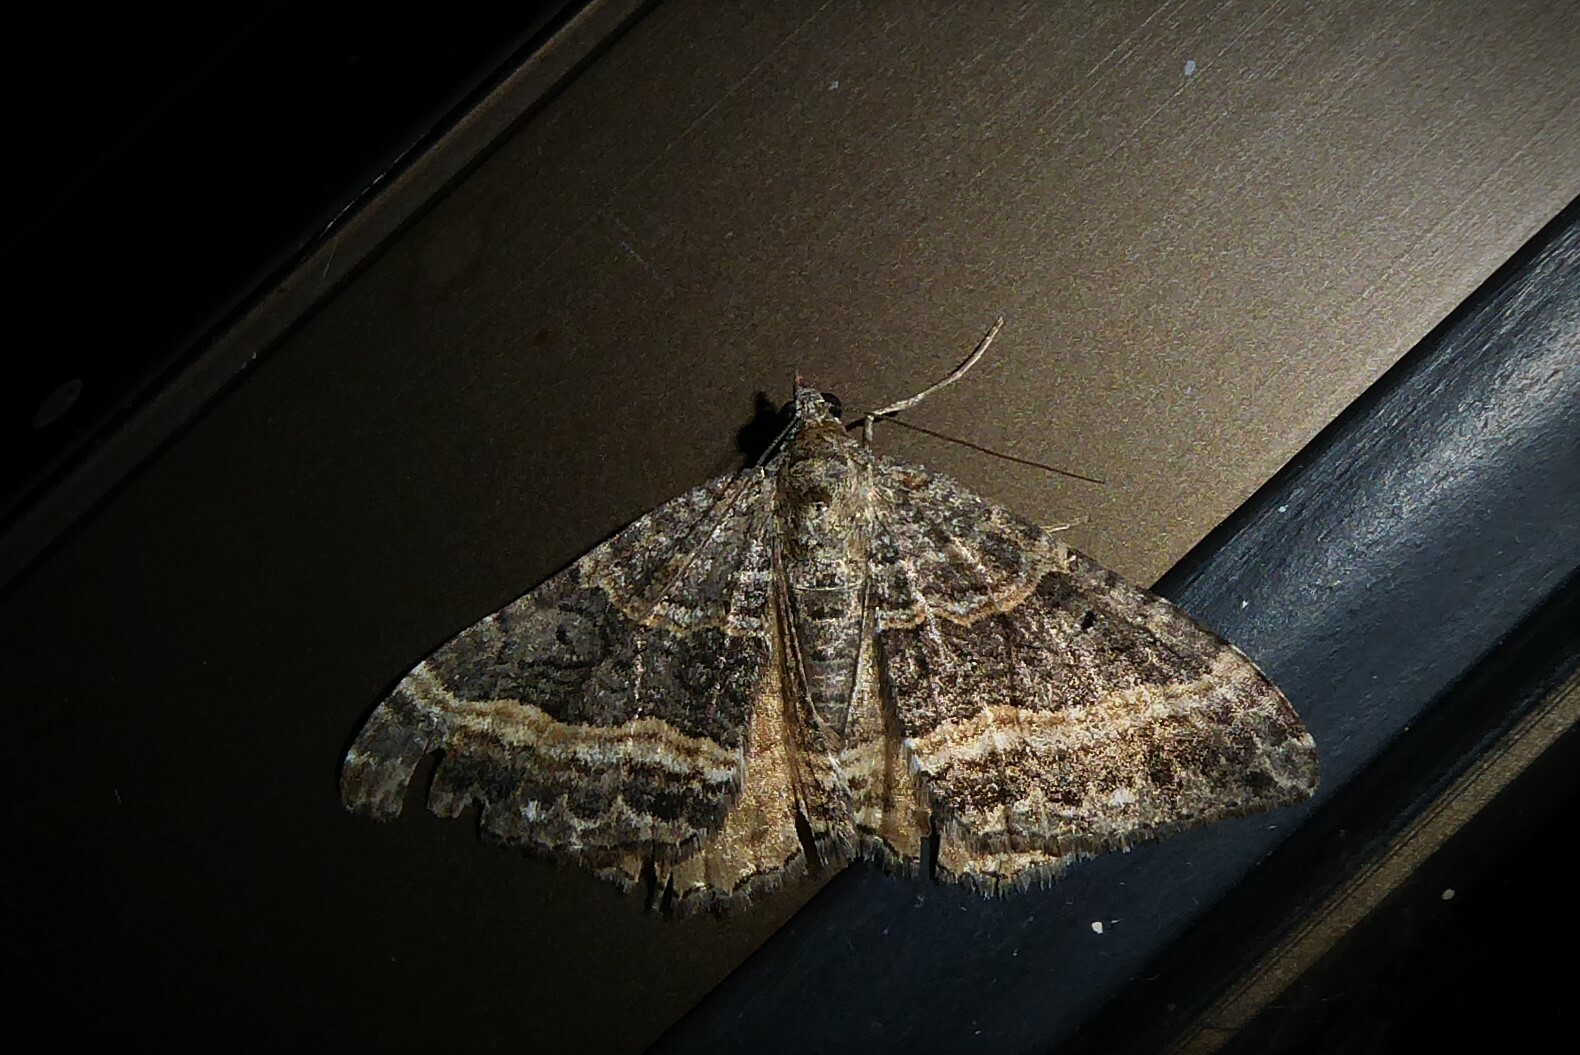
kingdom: Animalia
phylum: Arthropoda
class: Insecta
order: Lepidoptera
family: Geometridae
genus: Hydriomena
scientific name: Hydriomena deltoidata
